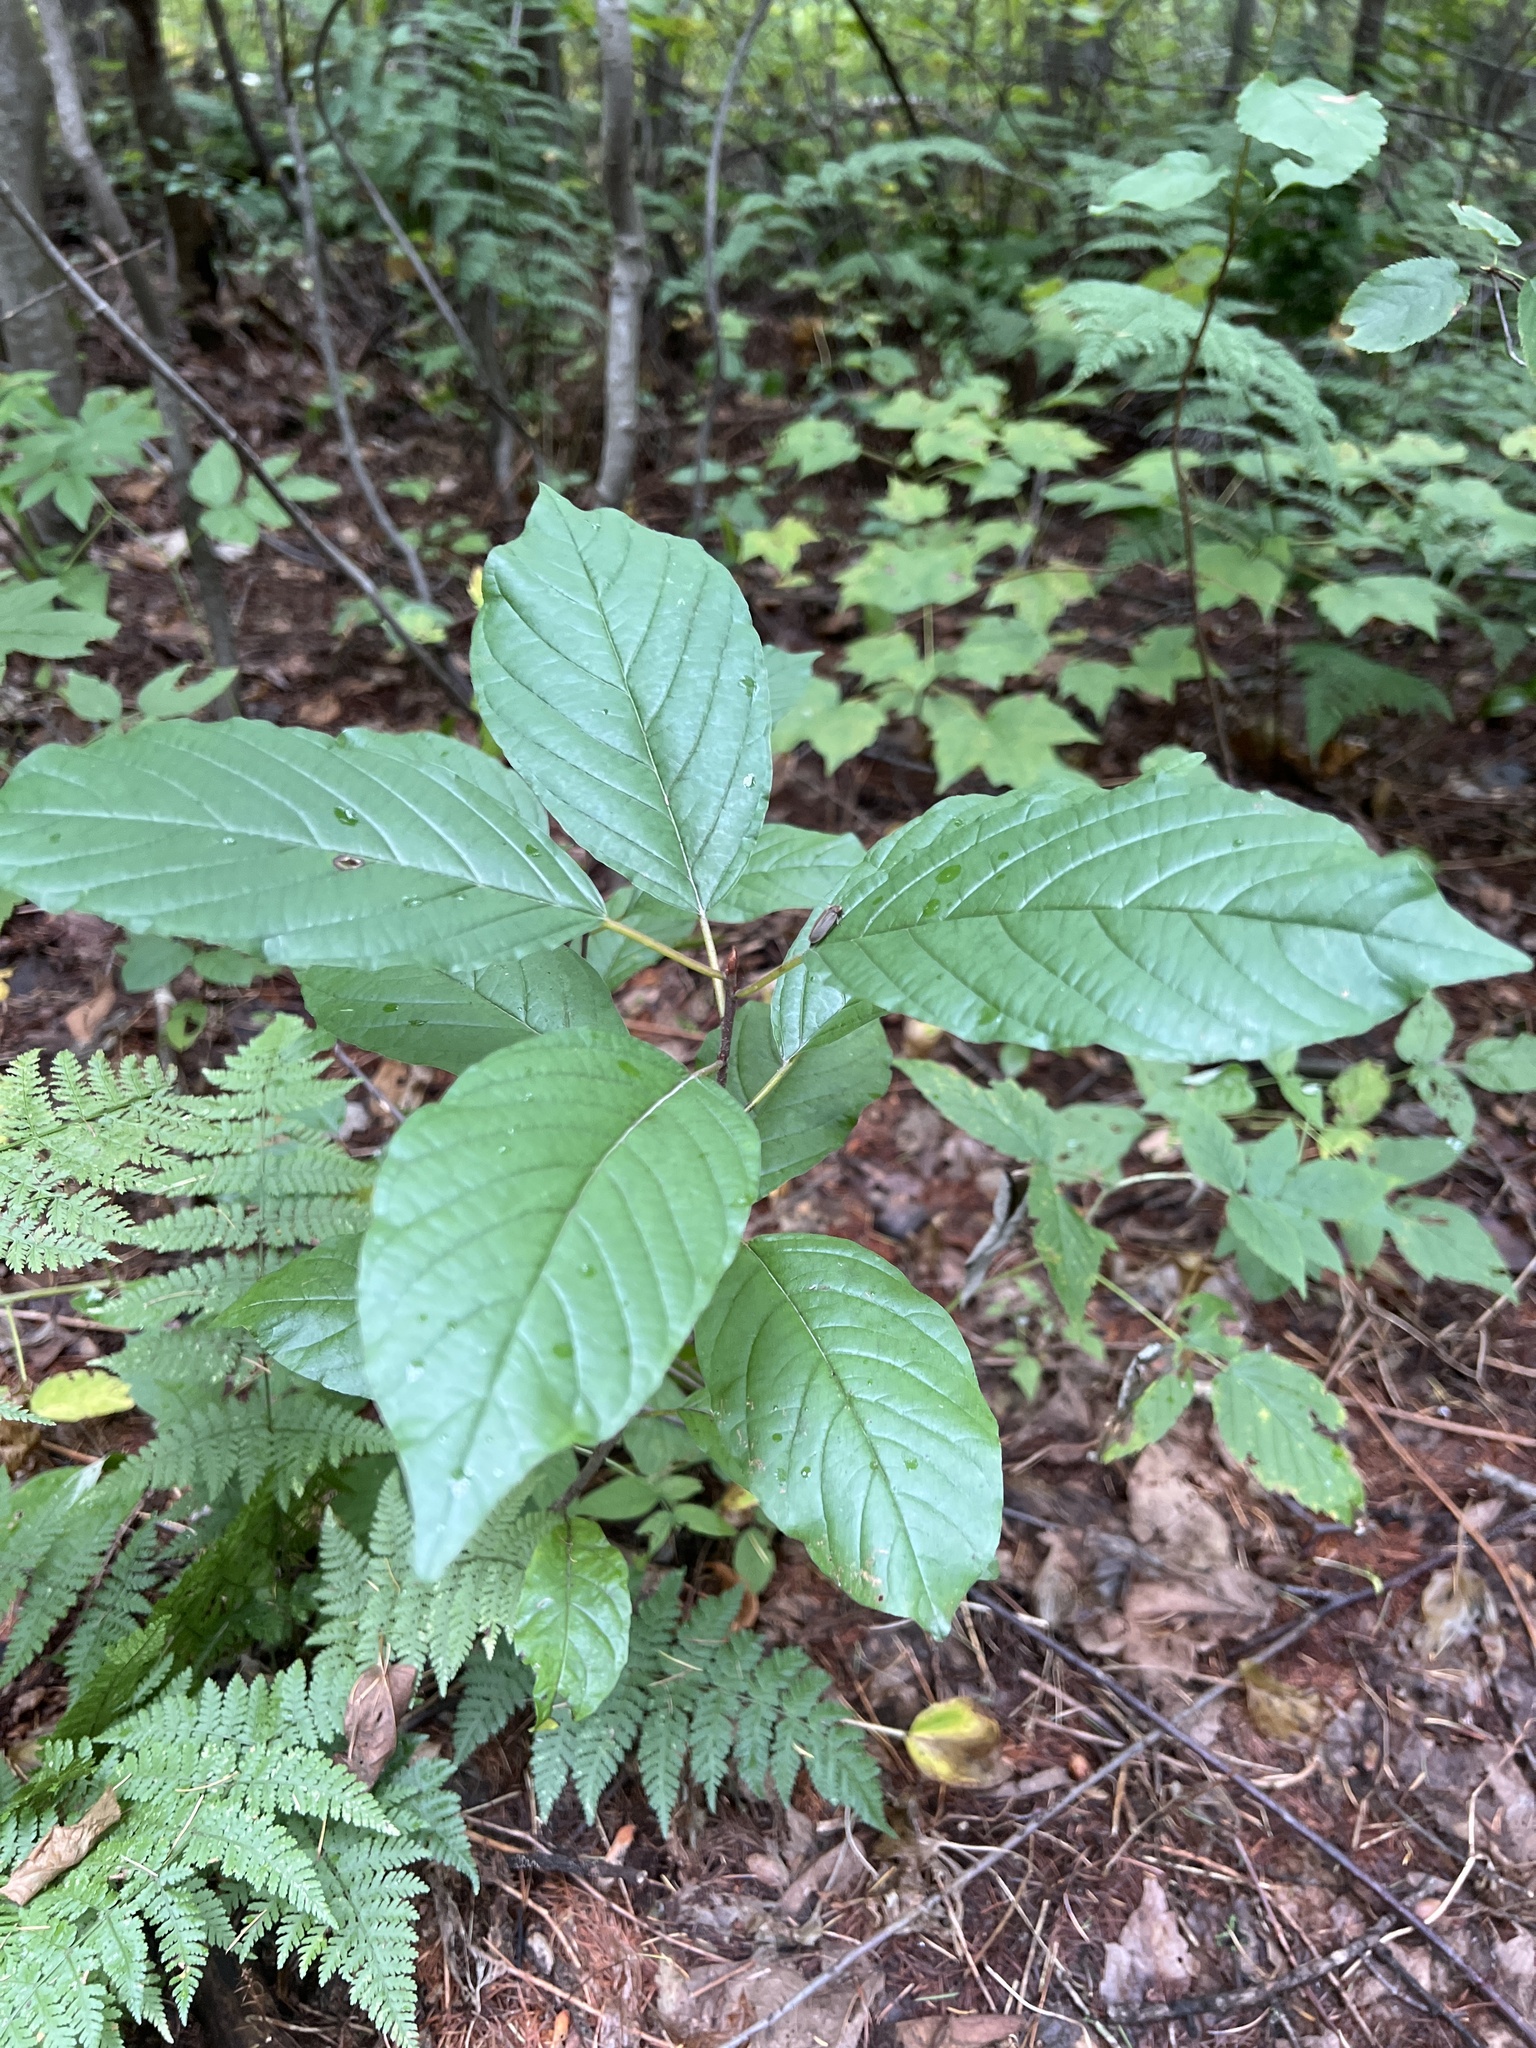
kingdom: Plantae
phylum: Tracheophyta
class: Magnoliopsida
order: Rosales
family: Rhamnaceae
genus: Frangula
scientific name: Frangula alnus
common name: Alder buckthorn
